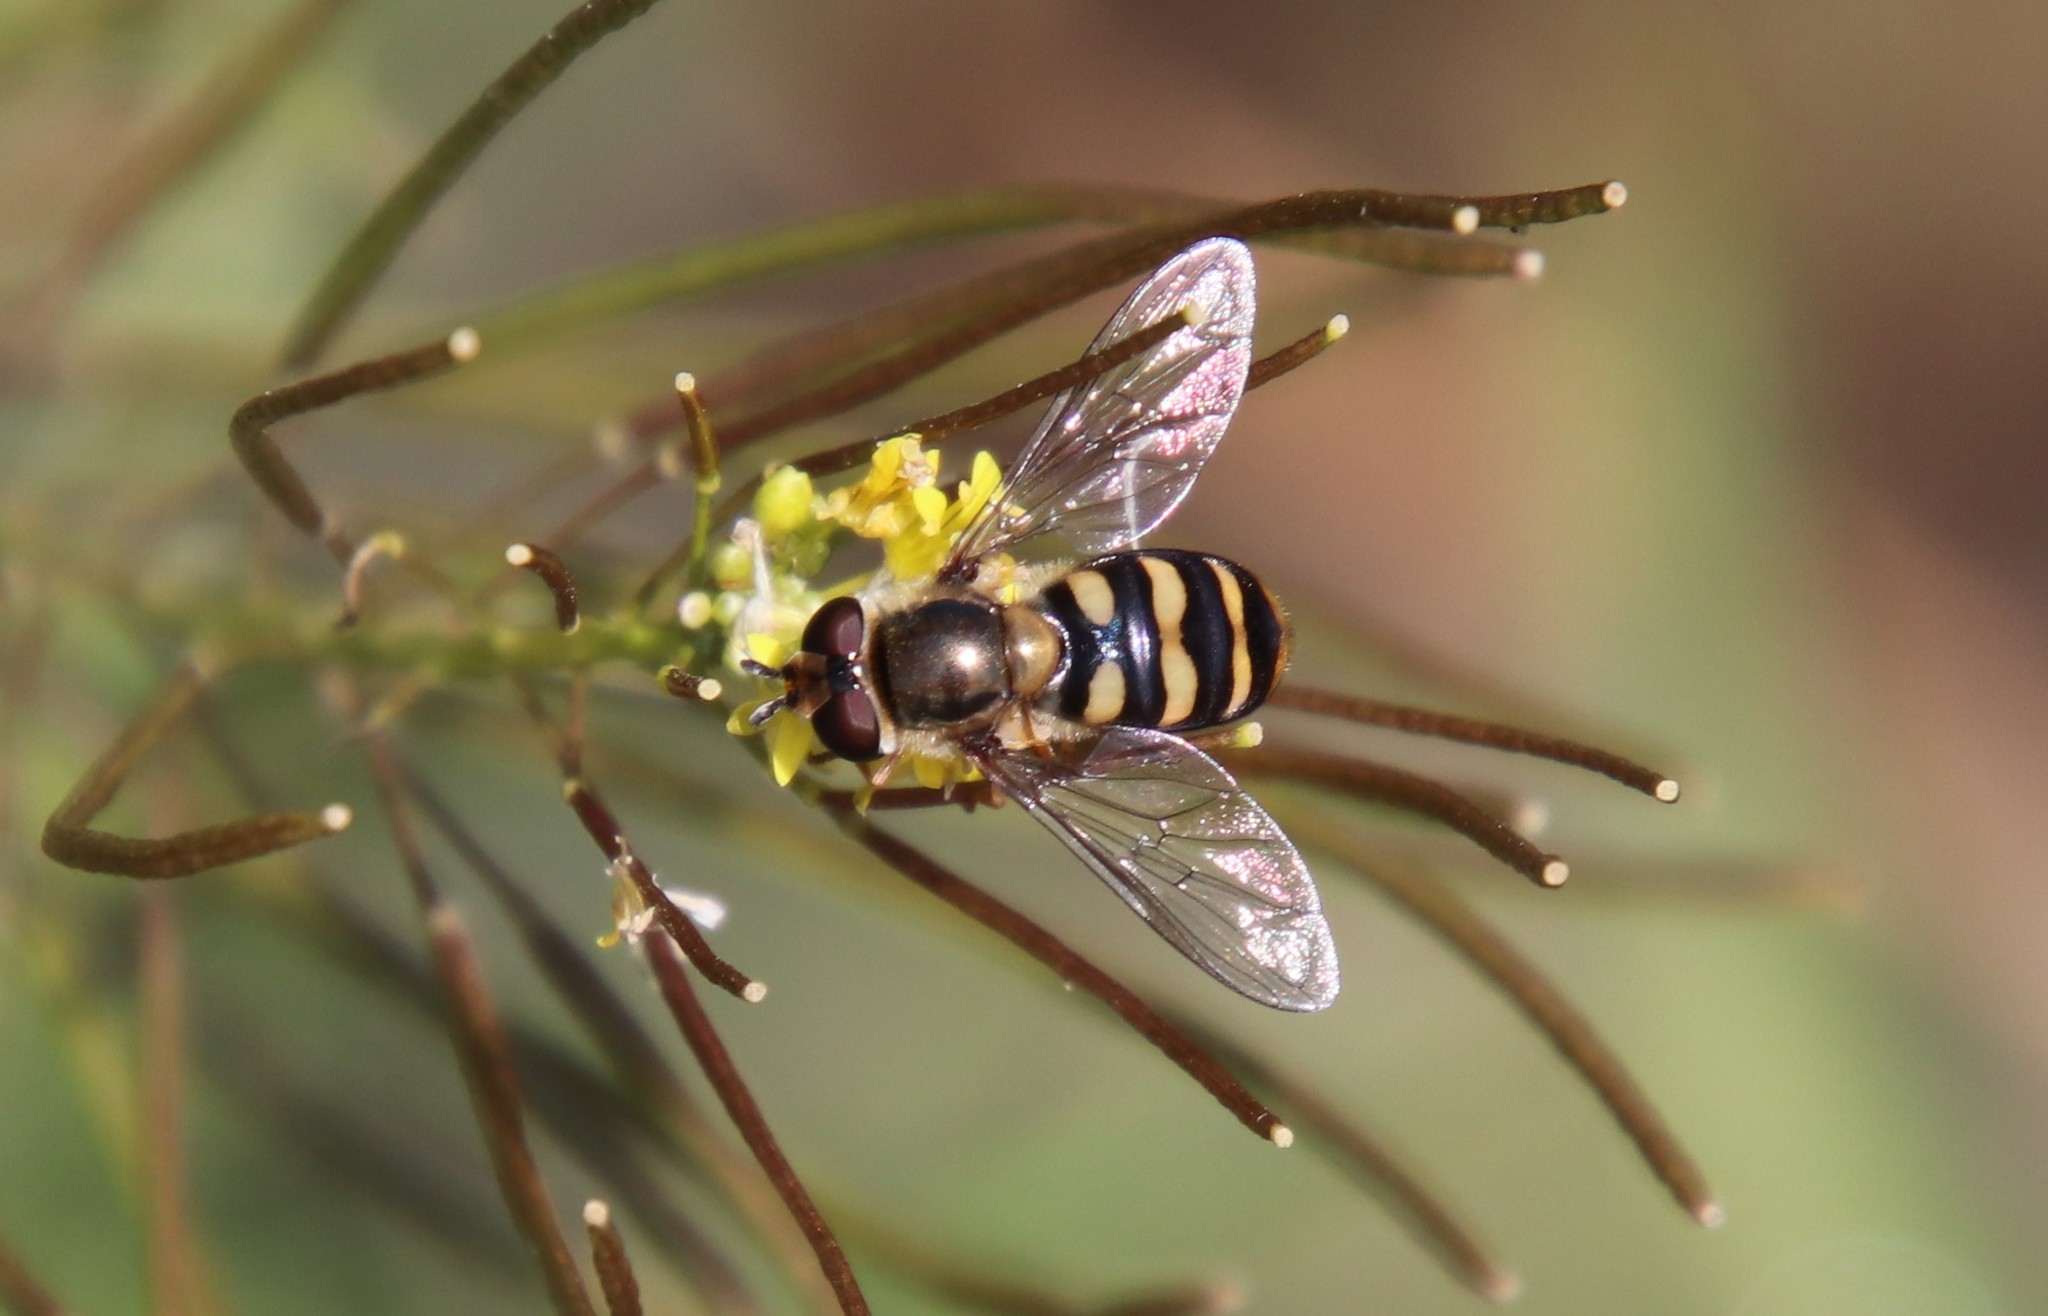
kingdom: Animalia
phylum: Arthropoda
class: Insecta
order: Diptera
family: Syrphidae
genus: Eupeodes
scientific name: Eupeodes fumipennis
